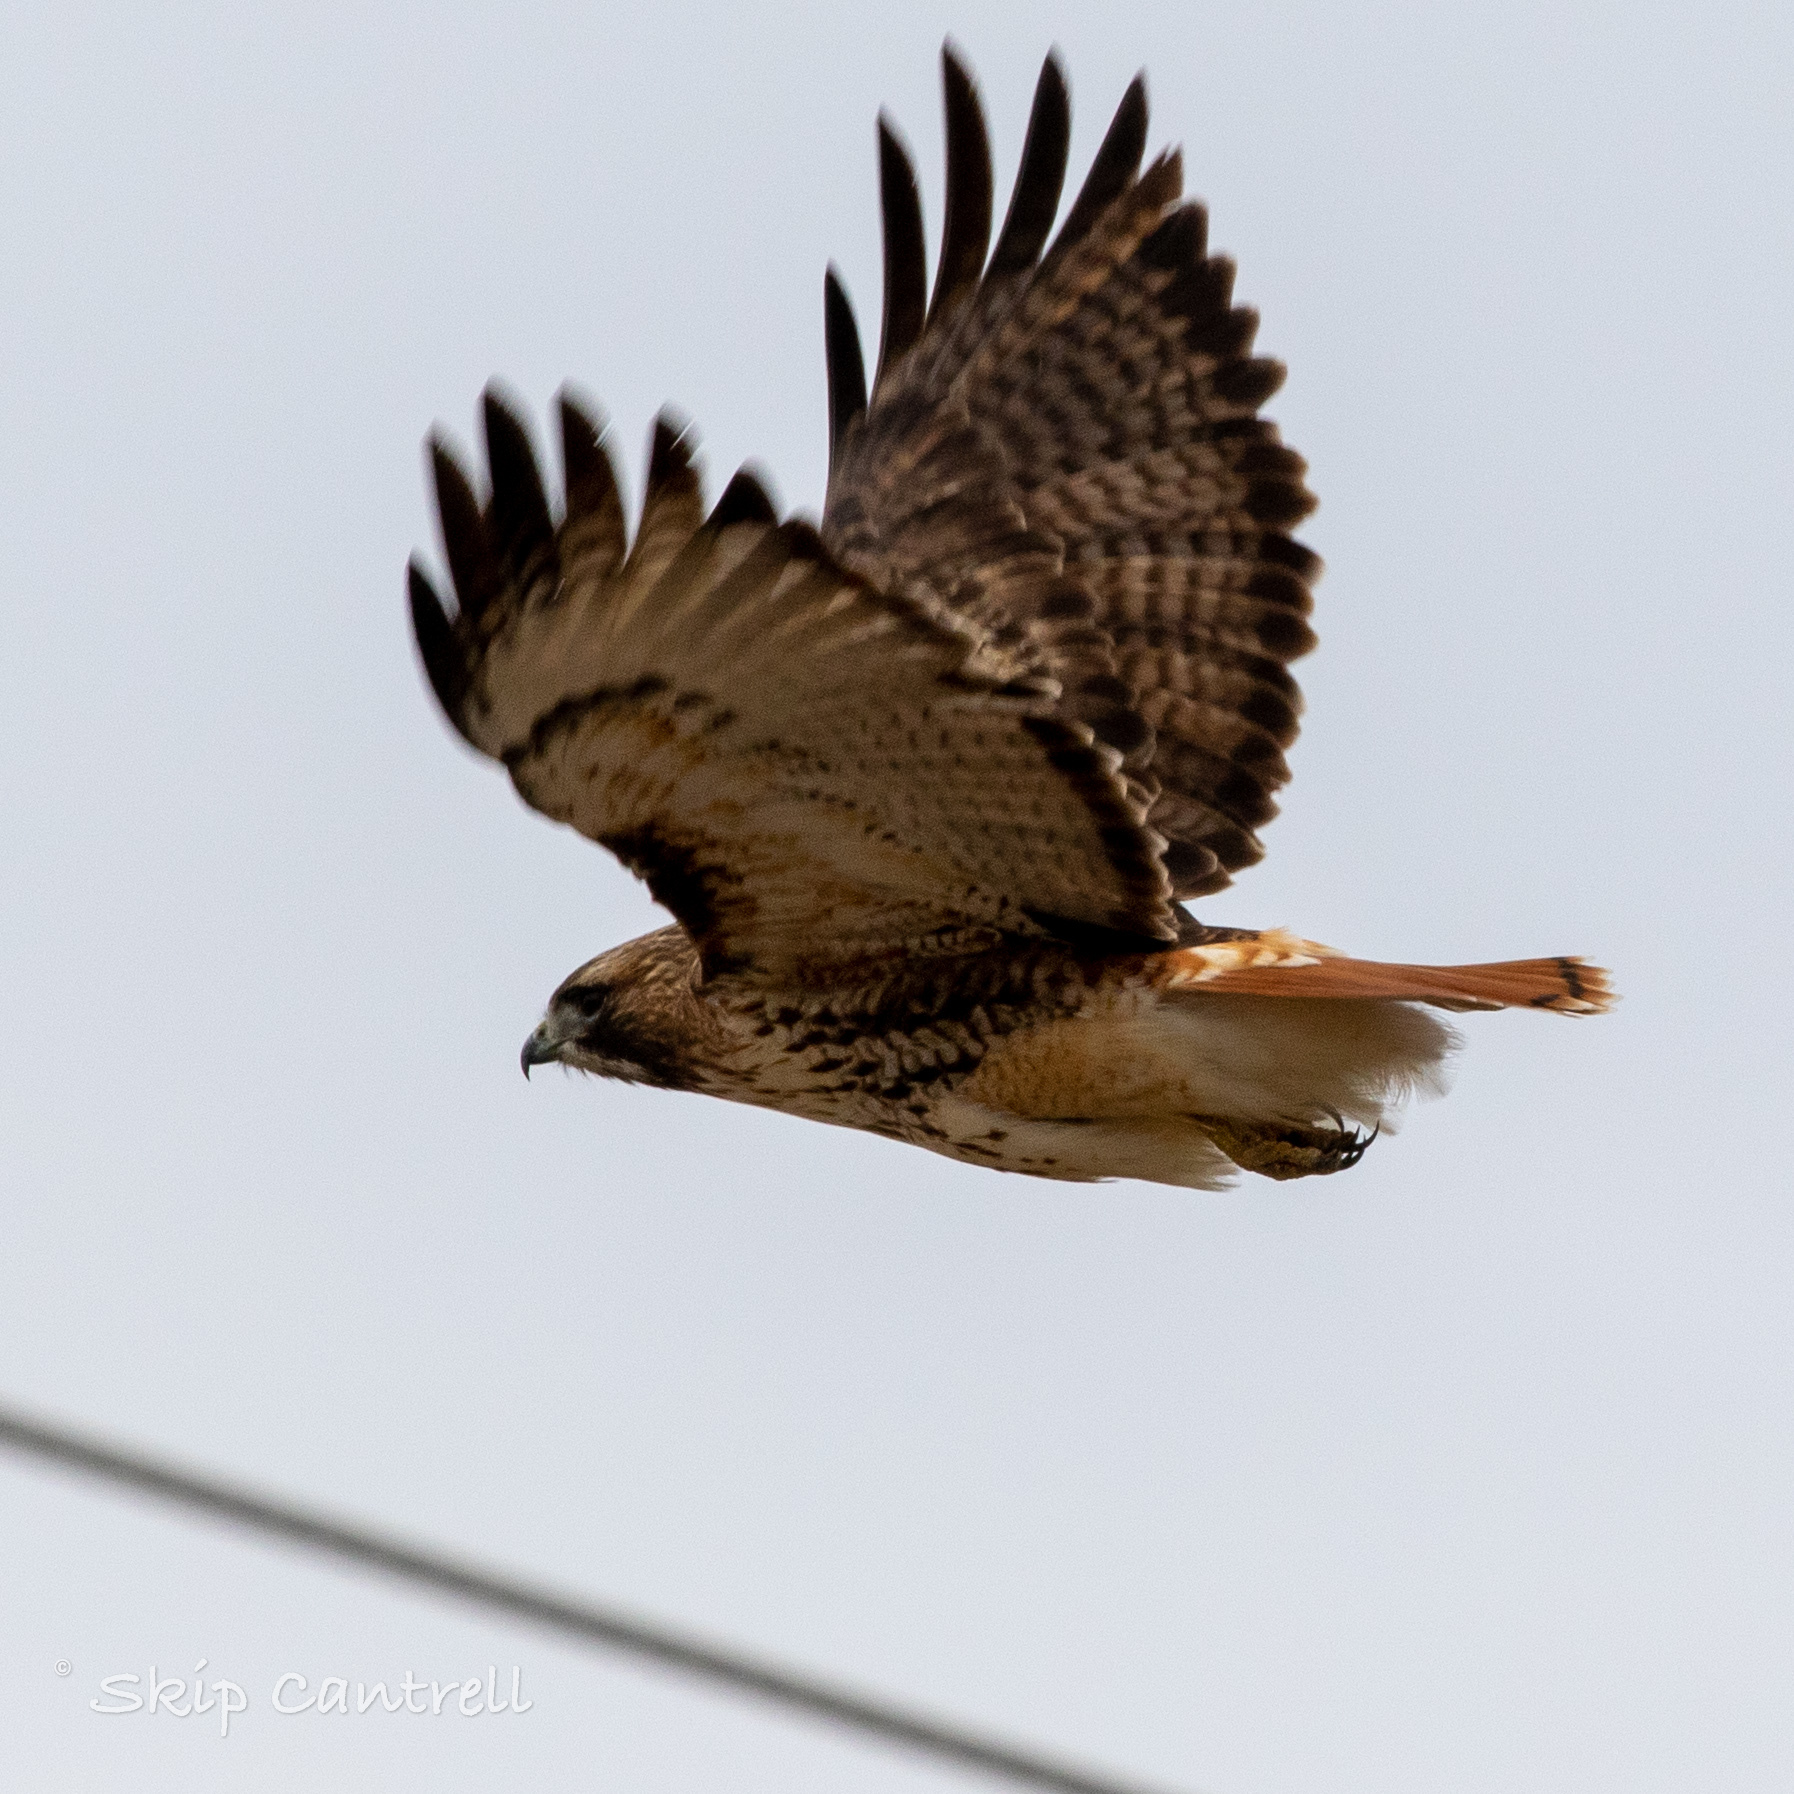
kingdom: Animalia
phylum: Chordata
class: Aves
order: Accipitriformes
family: Accipitridae
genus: Buteo
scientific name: Buteo jamaicensis
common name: Red-tailed hawk
